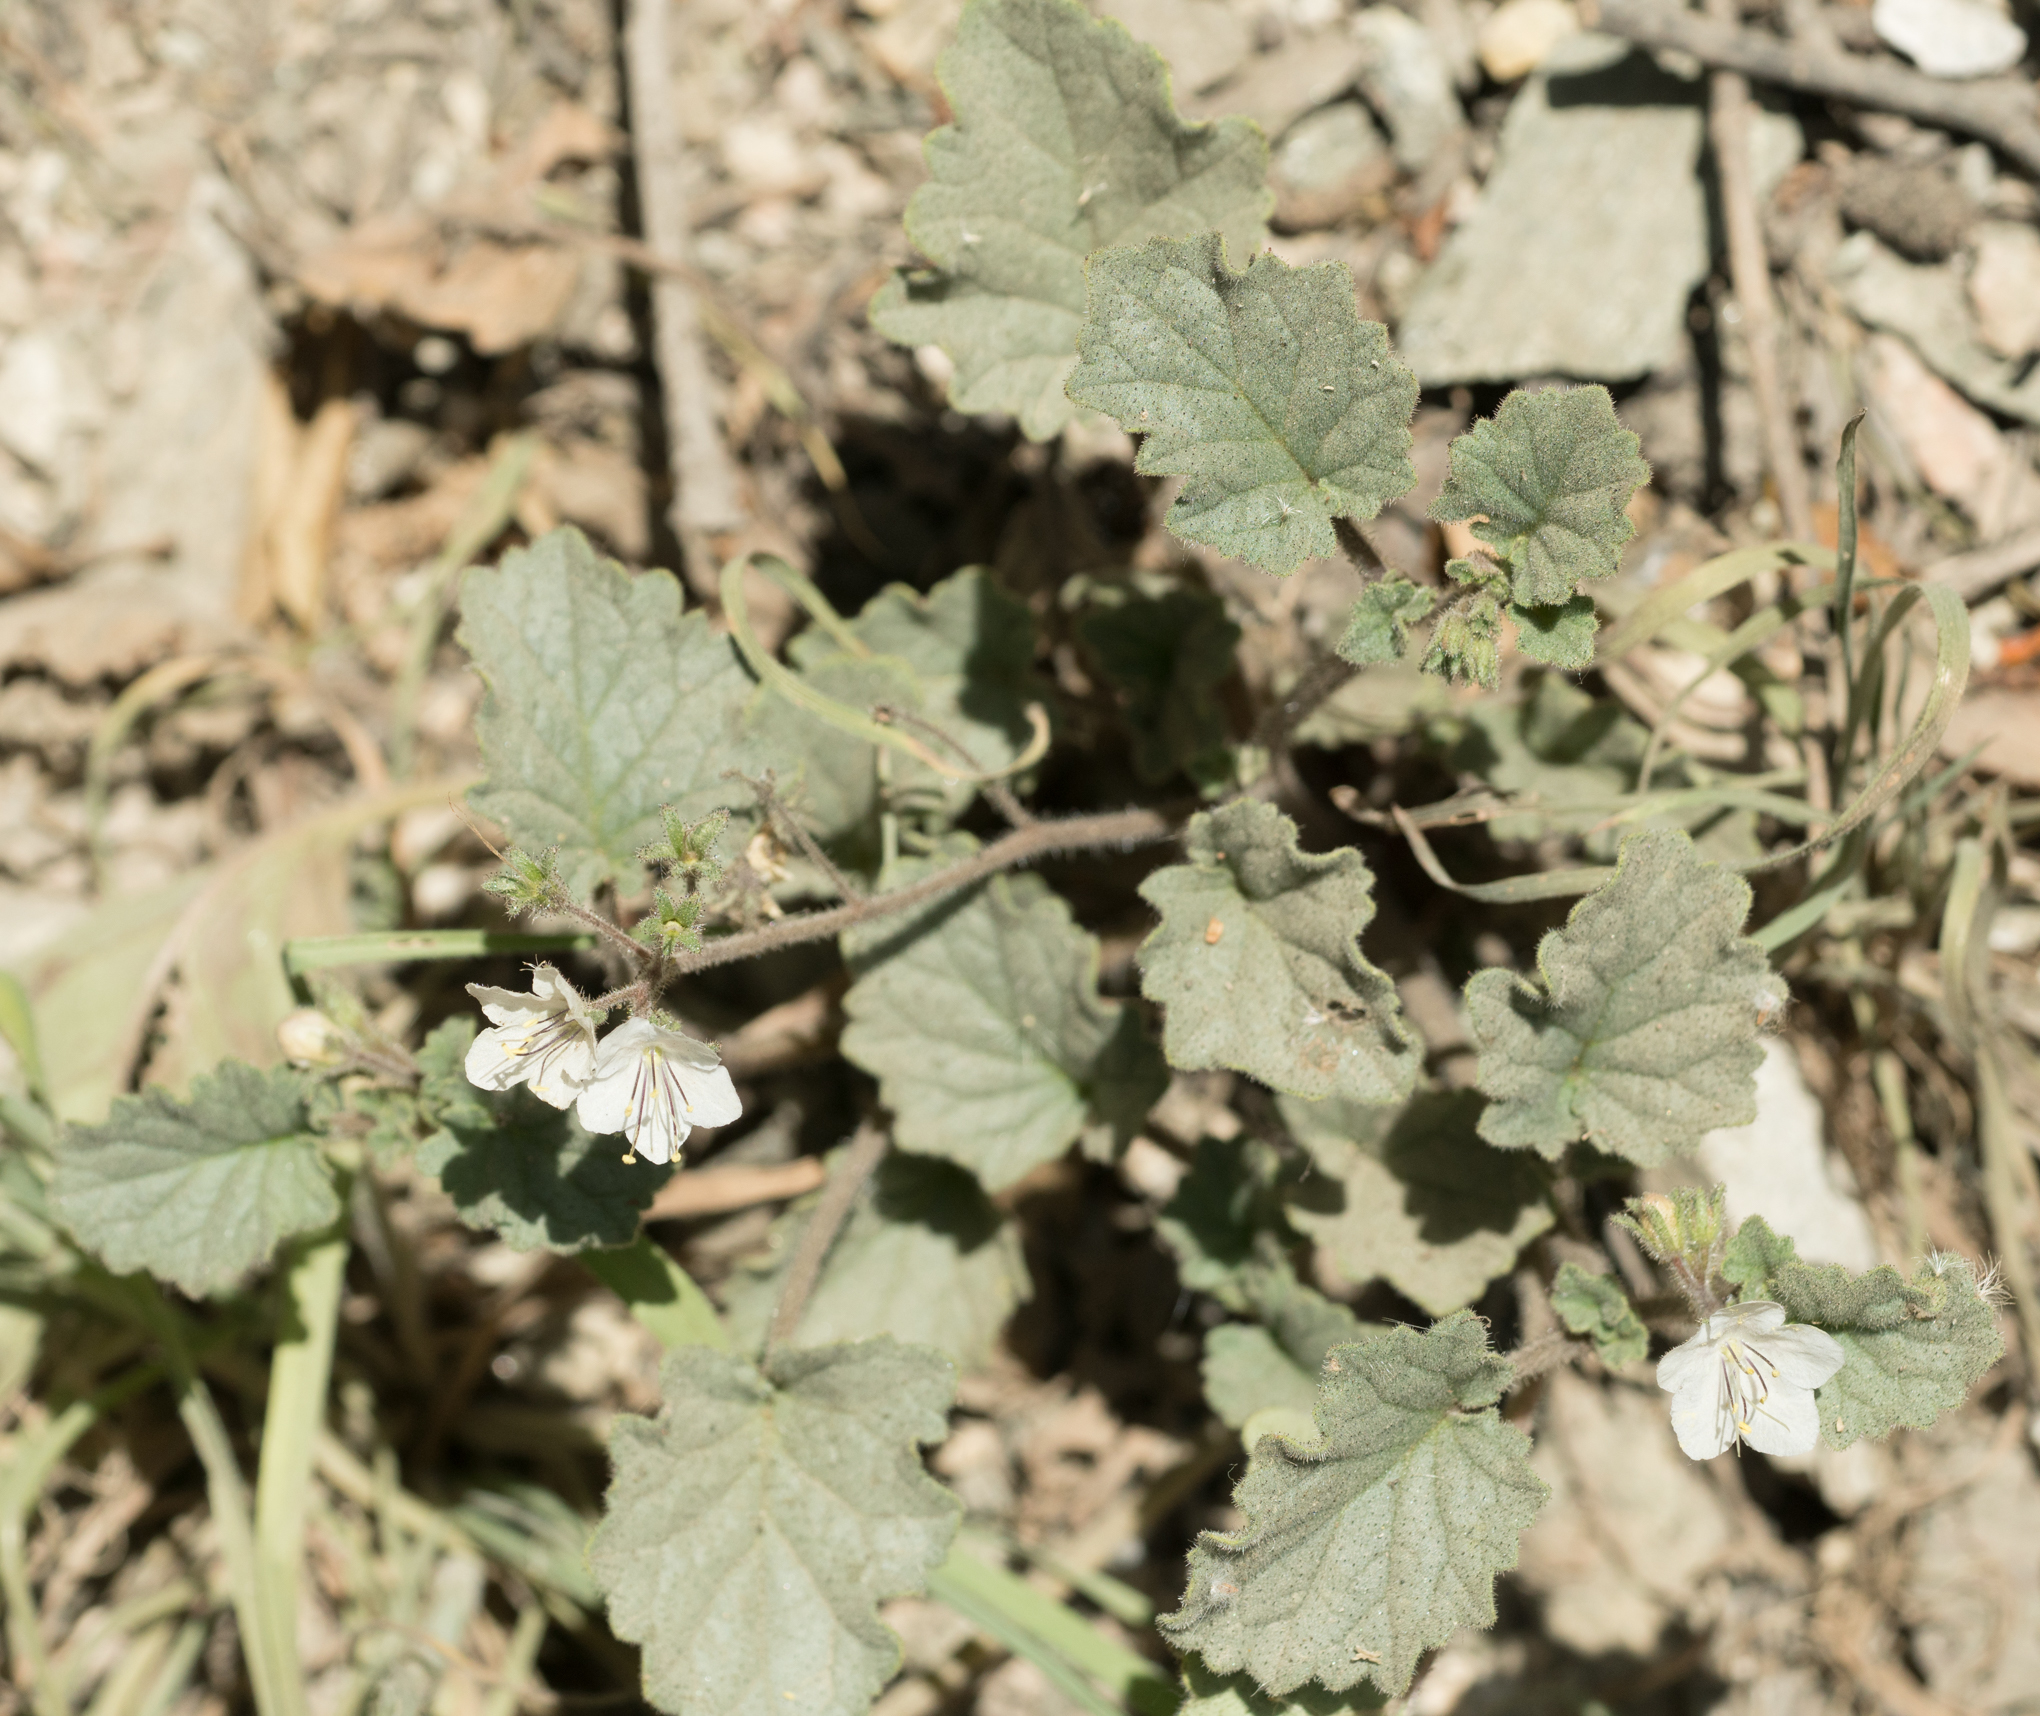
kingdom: Plantae
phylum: Tracheophyta
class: Magnoliopsida
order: Boraginales
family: Hydrophyllaceae
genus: Phacelia
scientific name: Phacelia longipes
